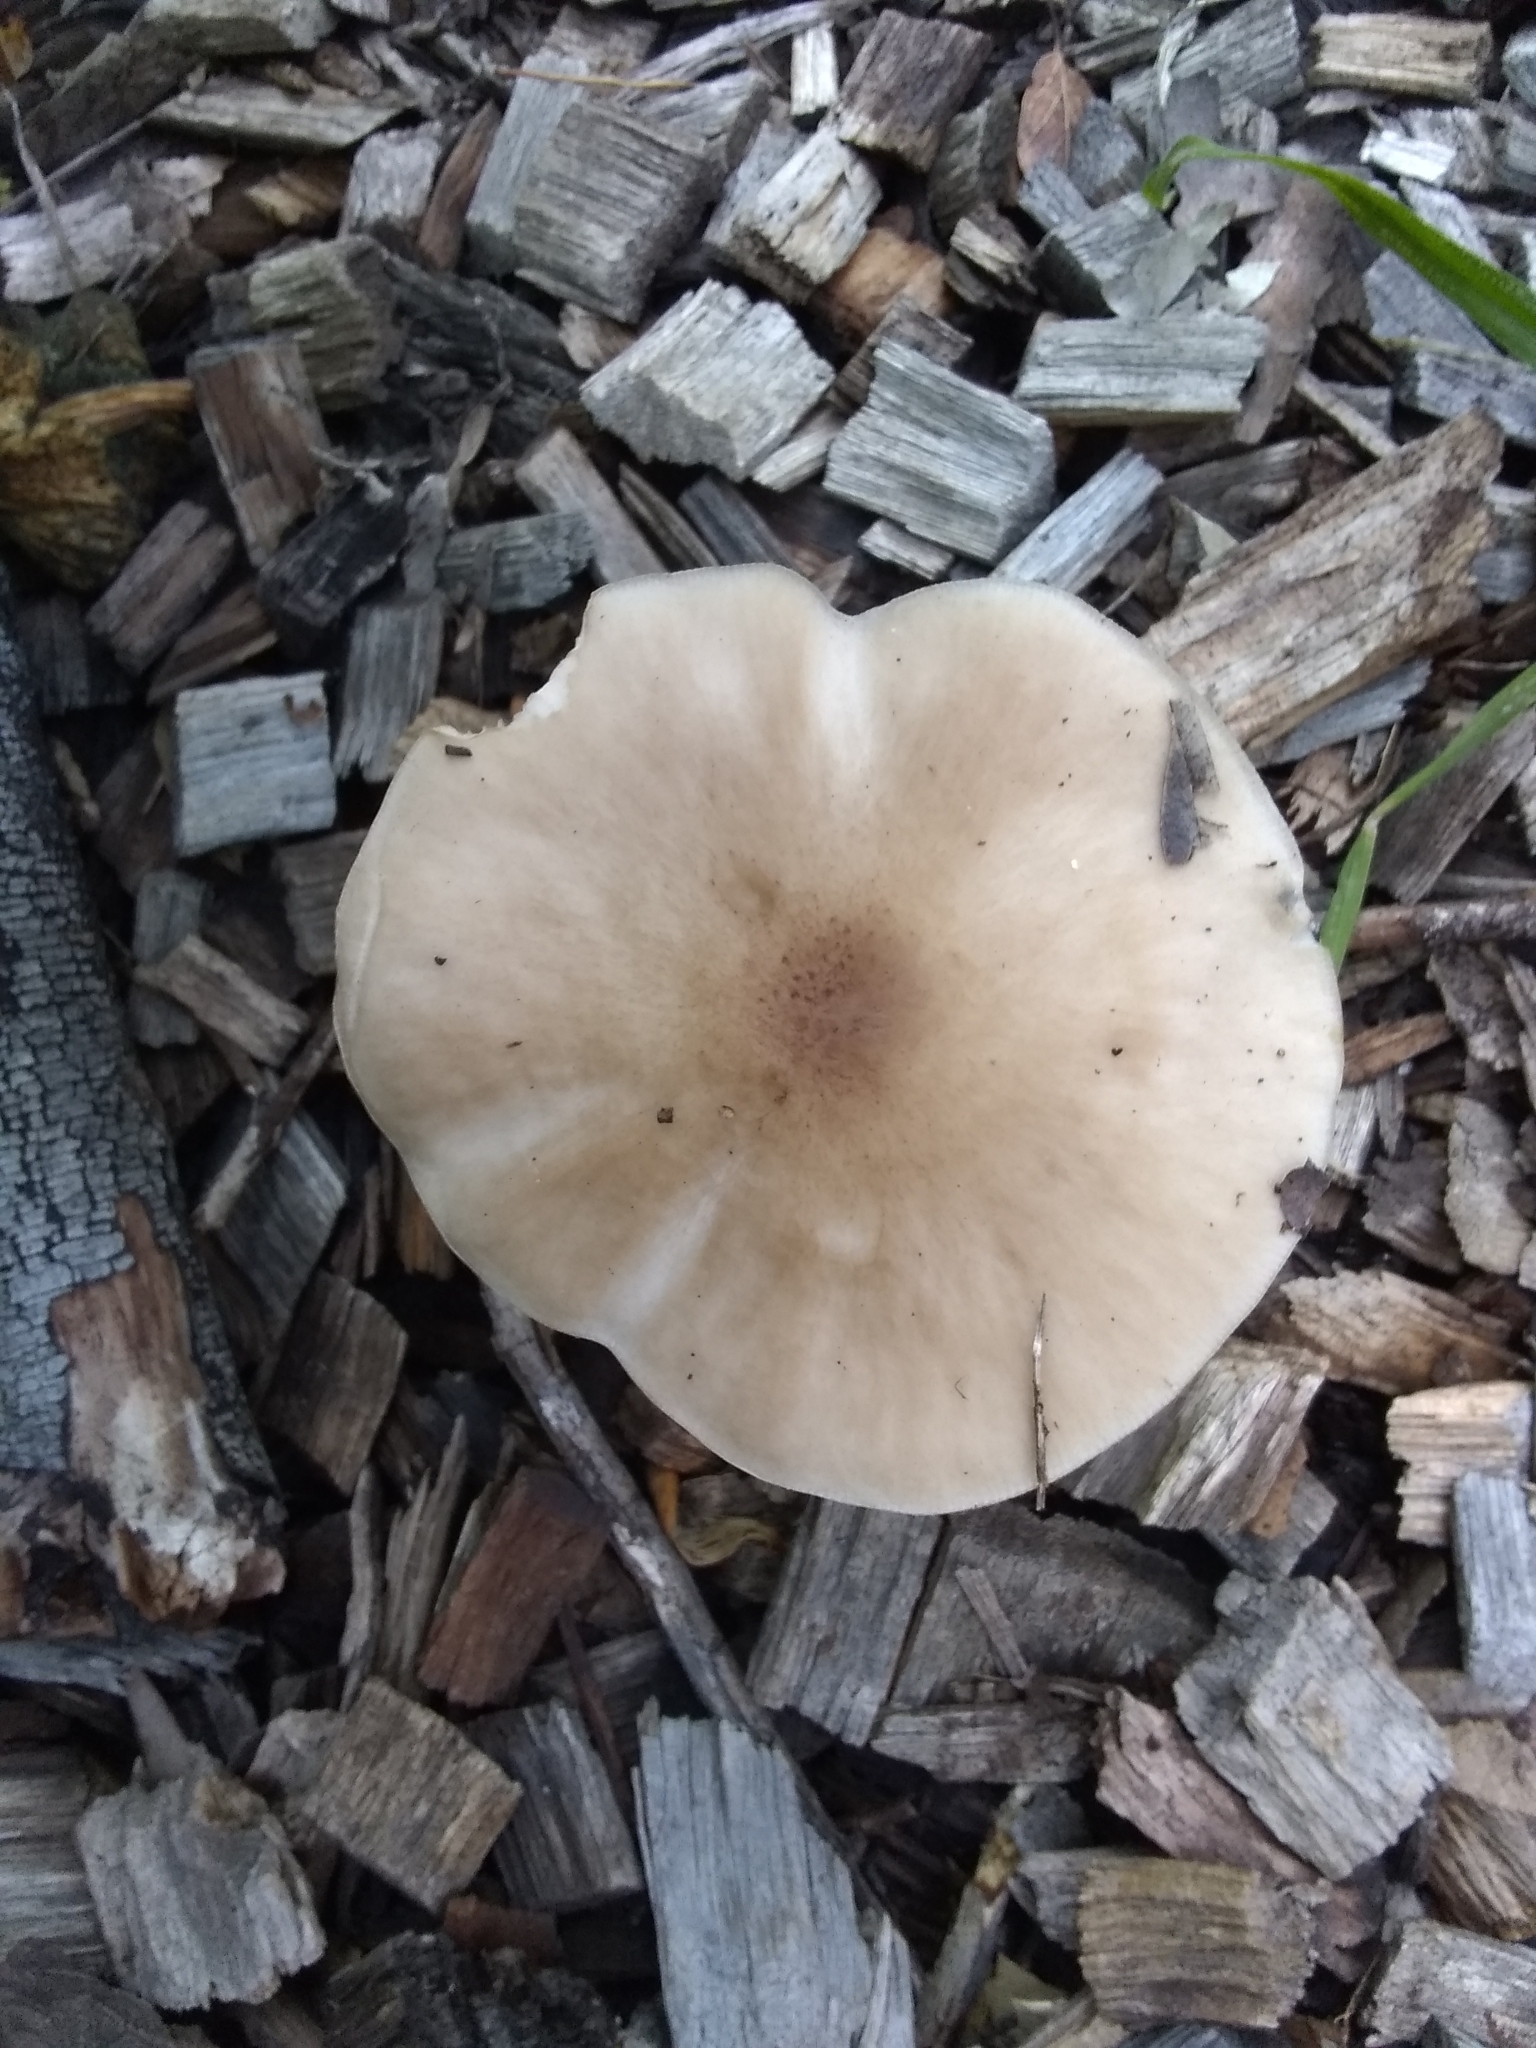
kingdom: Fungi
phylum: Basidiomycota
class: Agaricomycetes
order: Agaricales
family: Pluteaceae
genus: Pluteus
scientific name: Pluteus cervinus
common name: Deer shield
